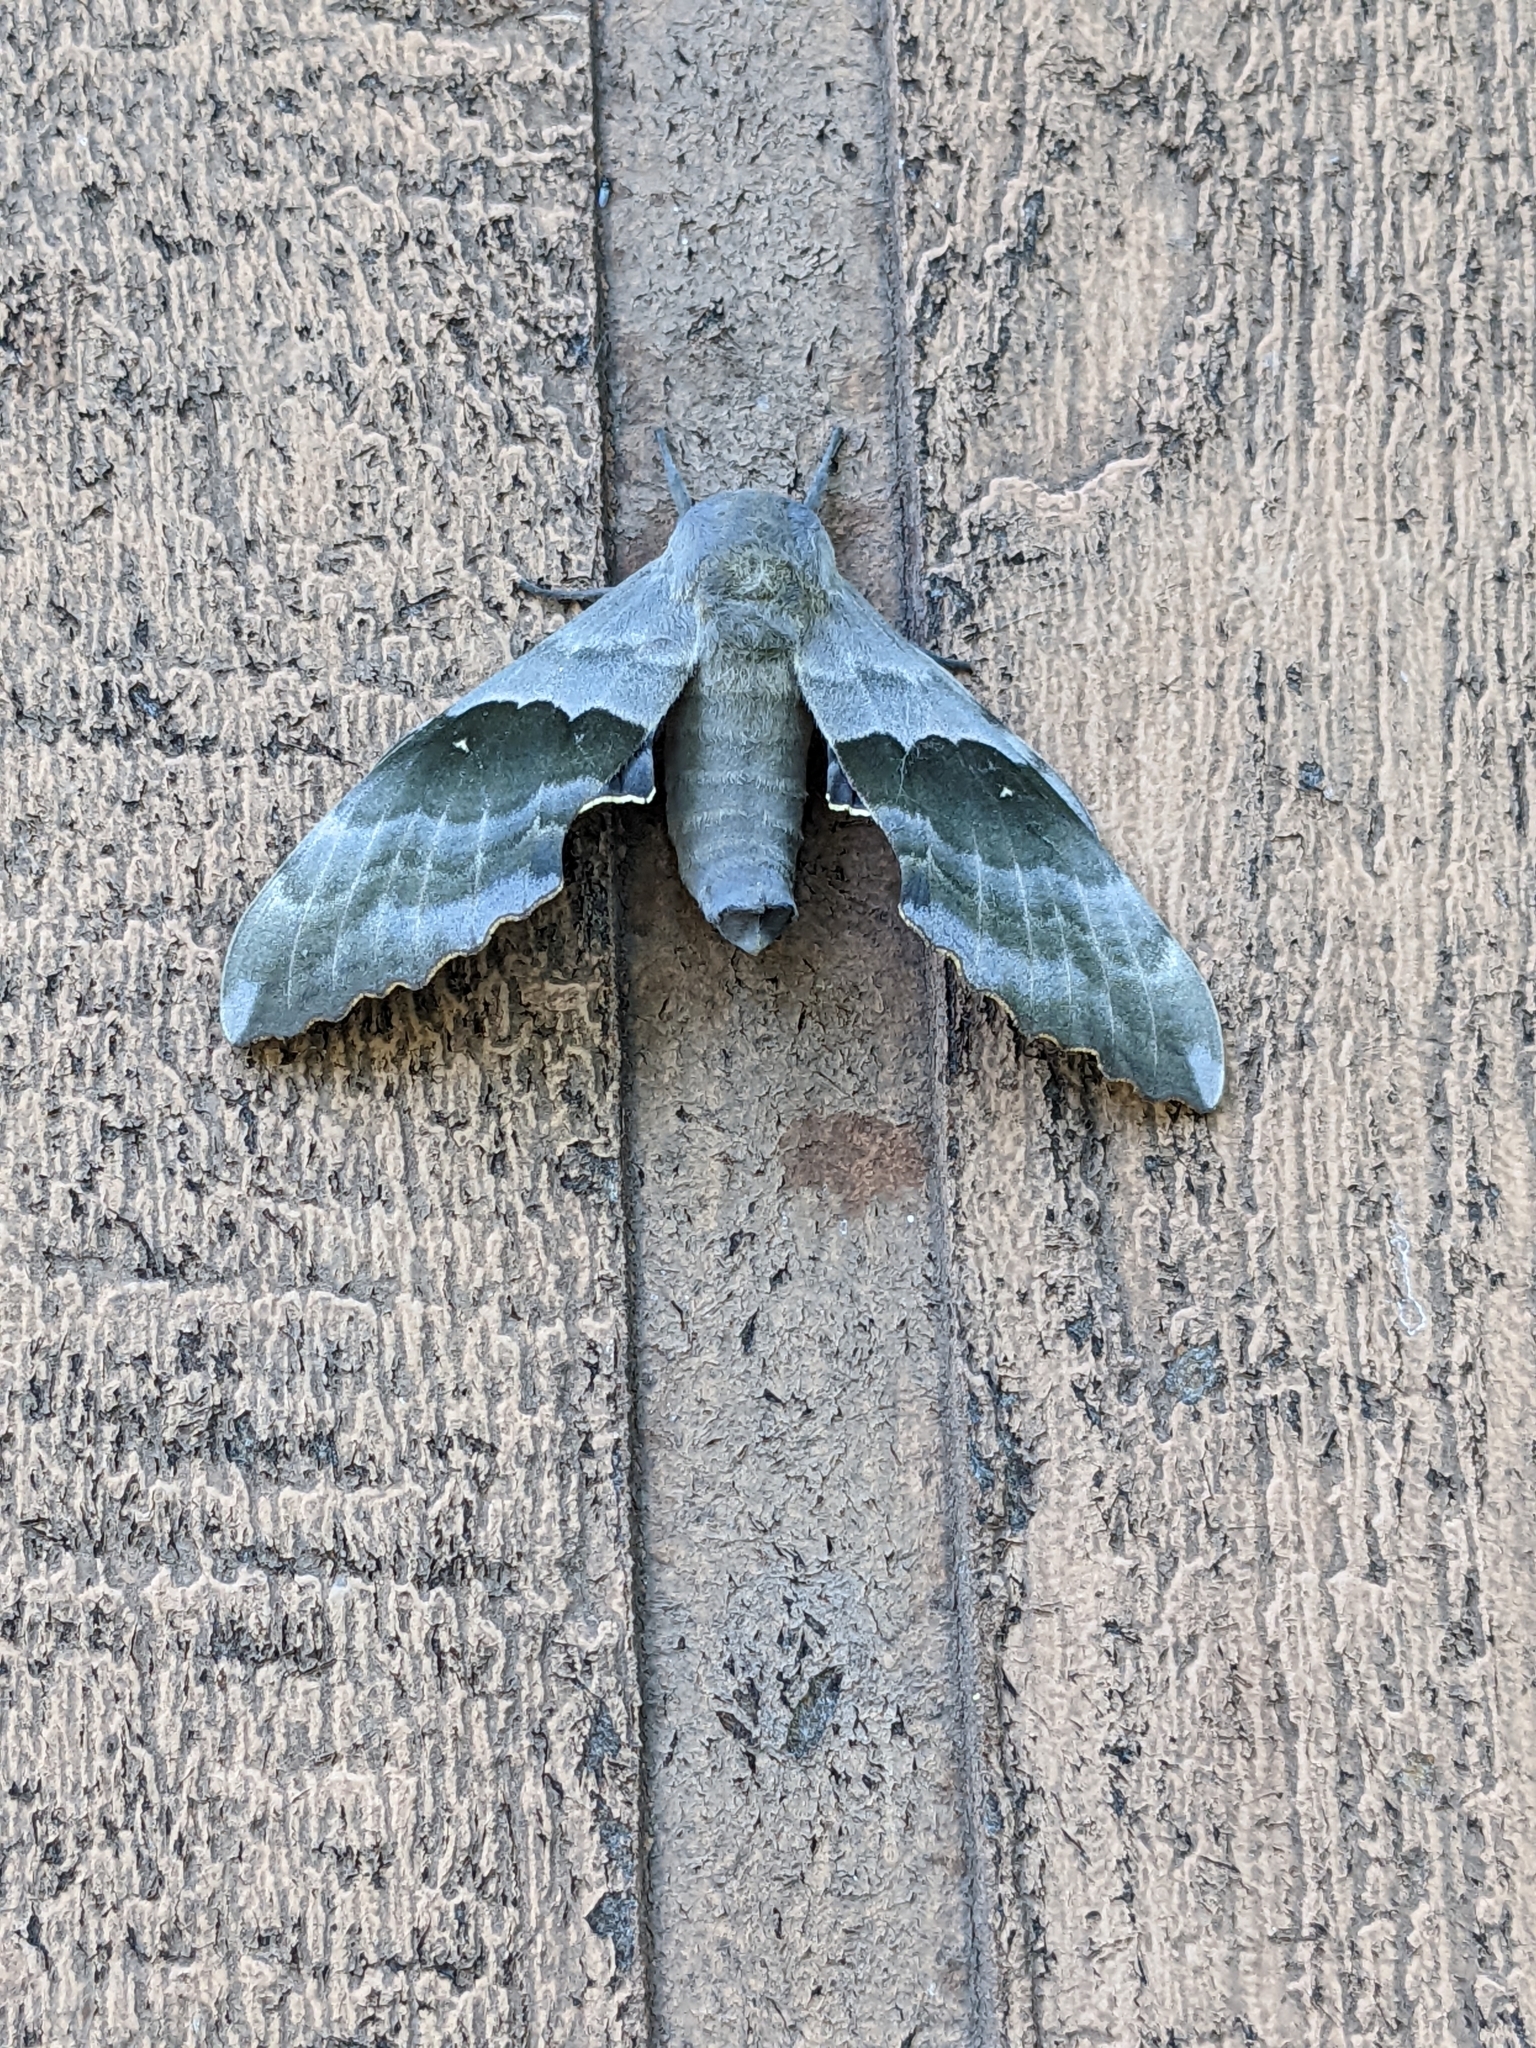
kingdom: Animalia
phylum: Arthropoda
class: Insecta
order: Lepidoptera
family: Sphingidae
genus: Pachysphinx
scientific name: Pachysphinx modesta
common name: Big poplar sphinx
